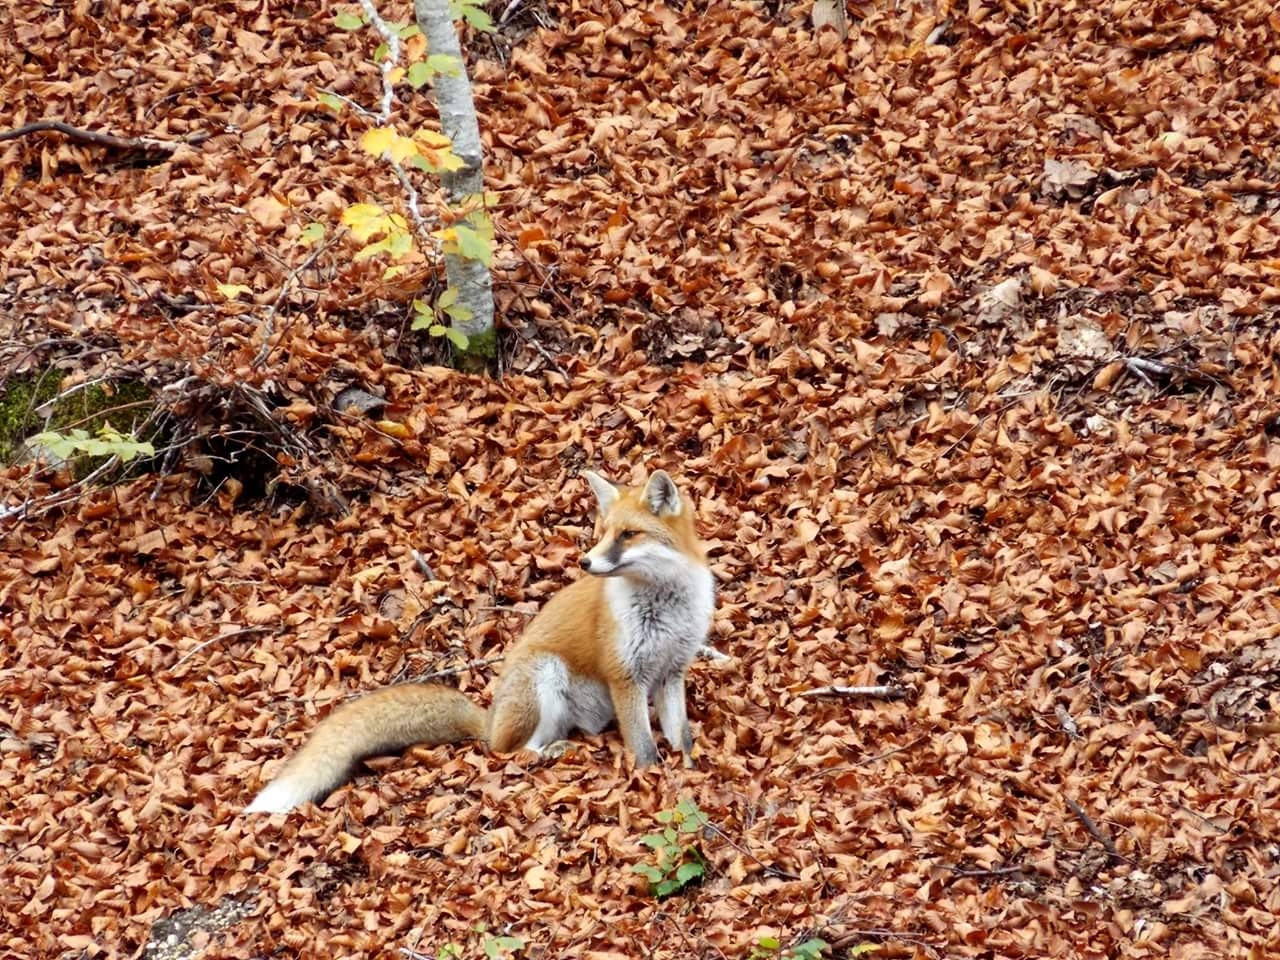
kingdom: Animalia
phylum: Chordata
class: Mammalia
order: Carnivora
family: Canidae
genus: Vulpes
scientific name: Vulpes vulpes
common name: Red fox
